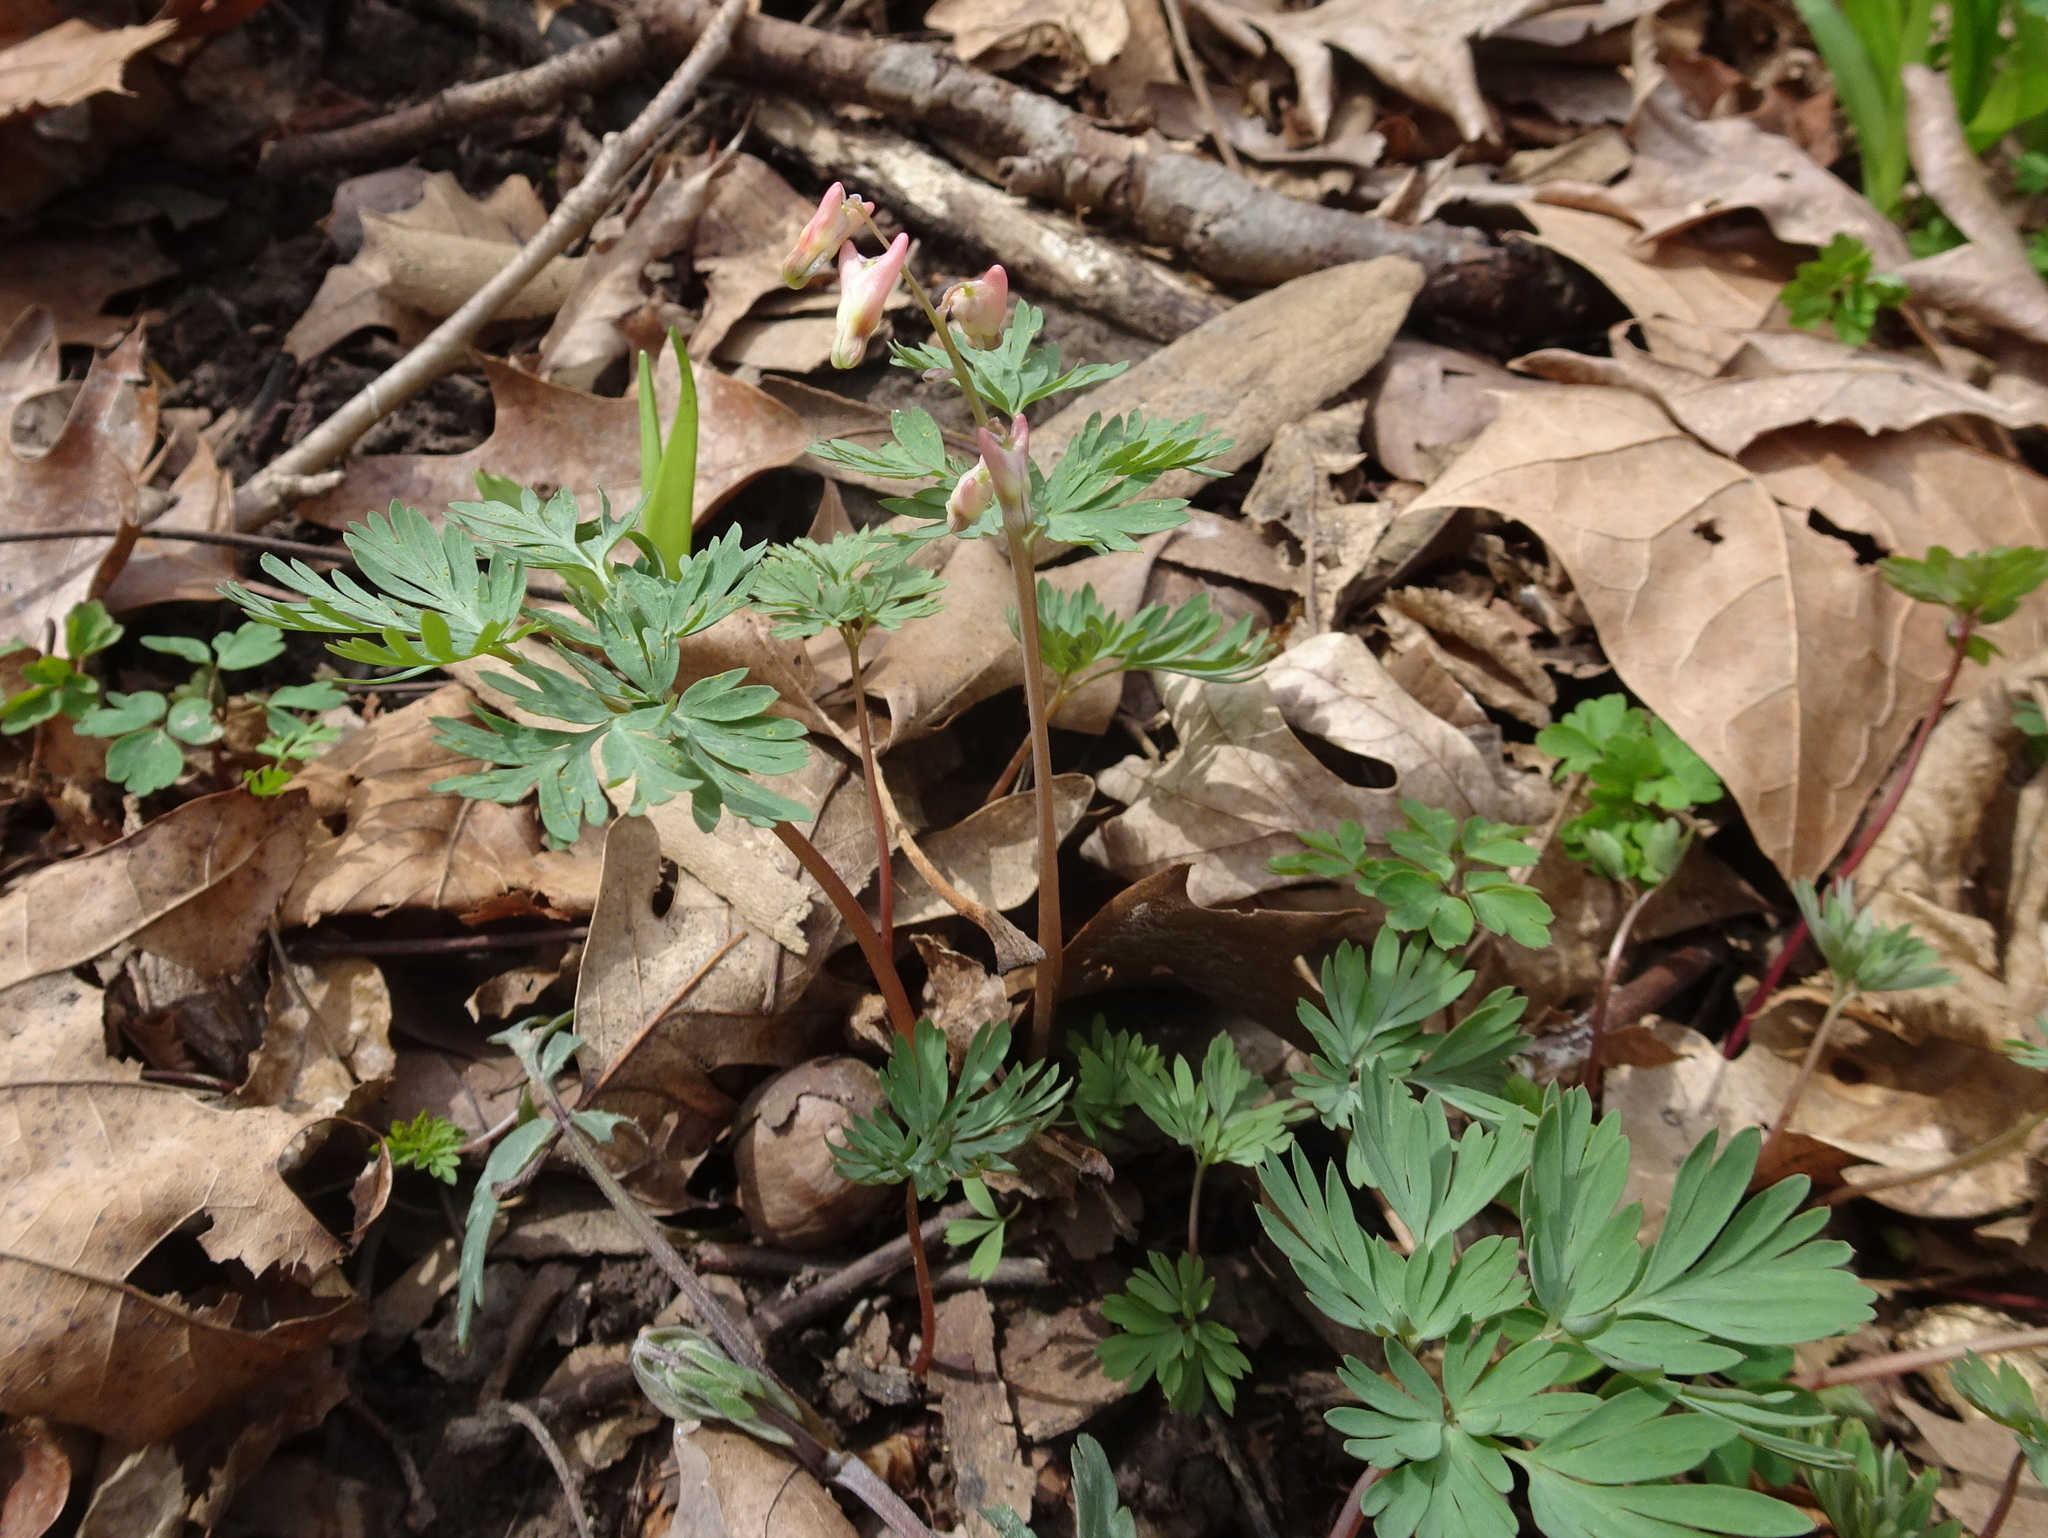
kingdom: Plantae
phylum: Tracheophyta
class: Magnoliopsida
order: Ranunculales
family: Papaveraceae
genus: Dicentra
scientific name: Dicentra cucullaria
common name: Dutchman's breeches
